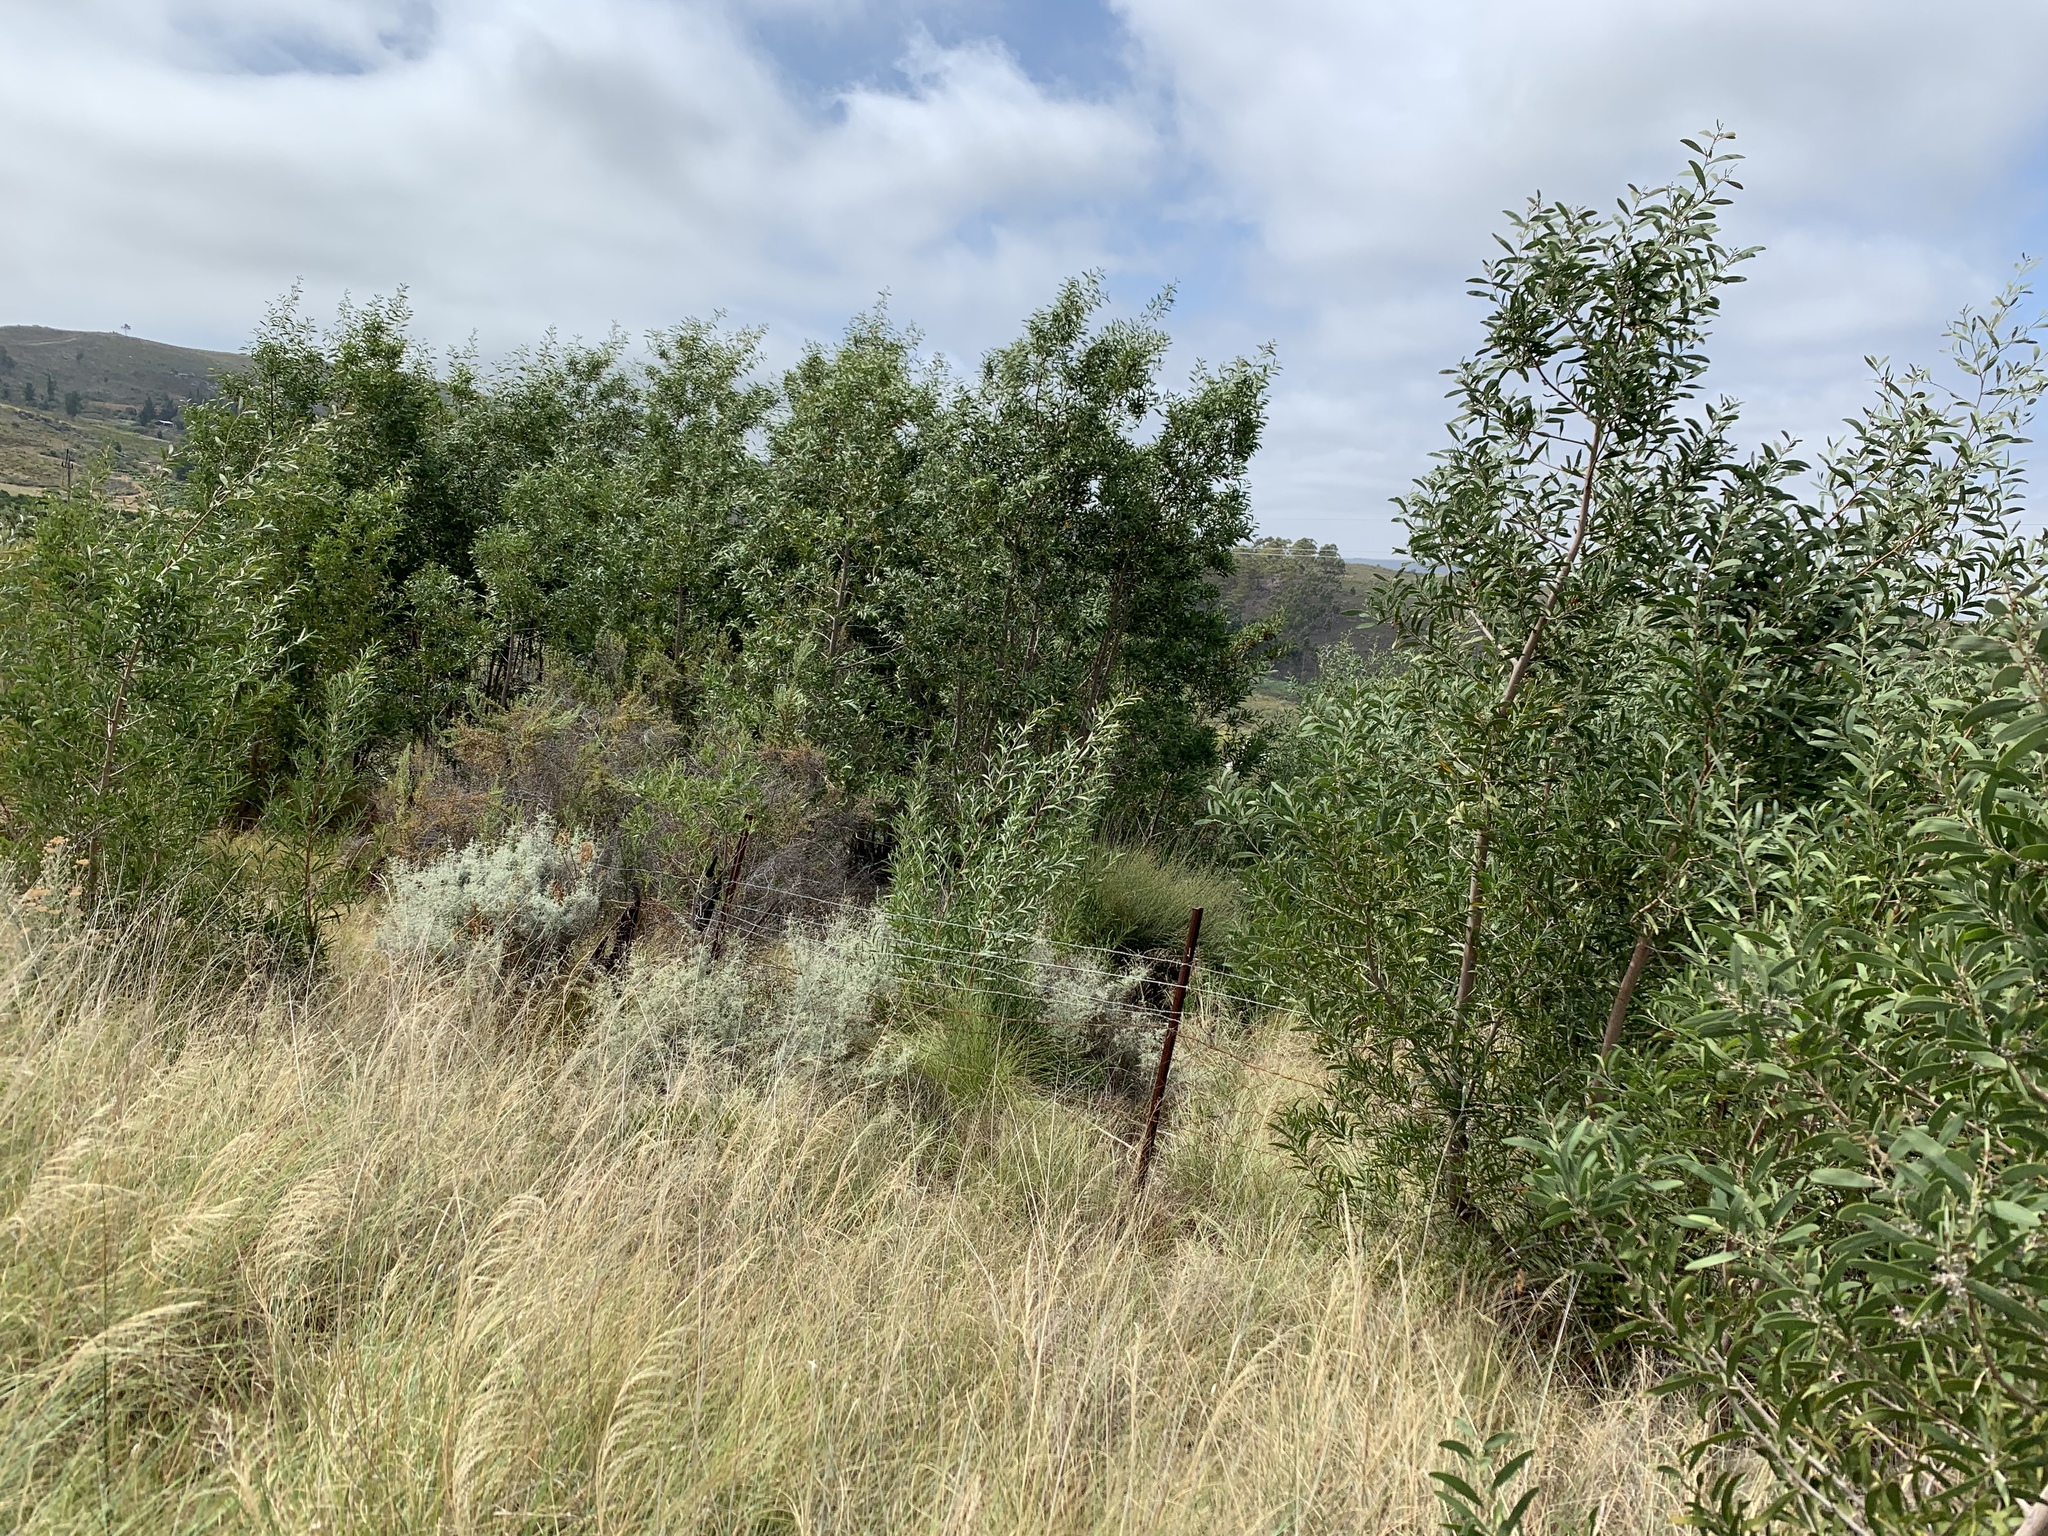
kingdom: Plantae
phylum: Tracheophyta
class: Magnoliopsida
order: Fabales
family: Fabaceae
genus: Acacia
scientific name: Acacia melanoxylon
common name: Blackwood
